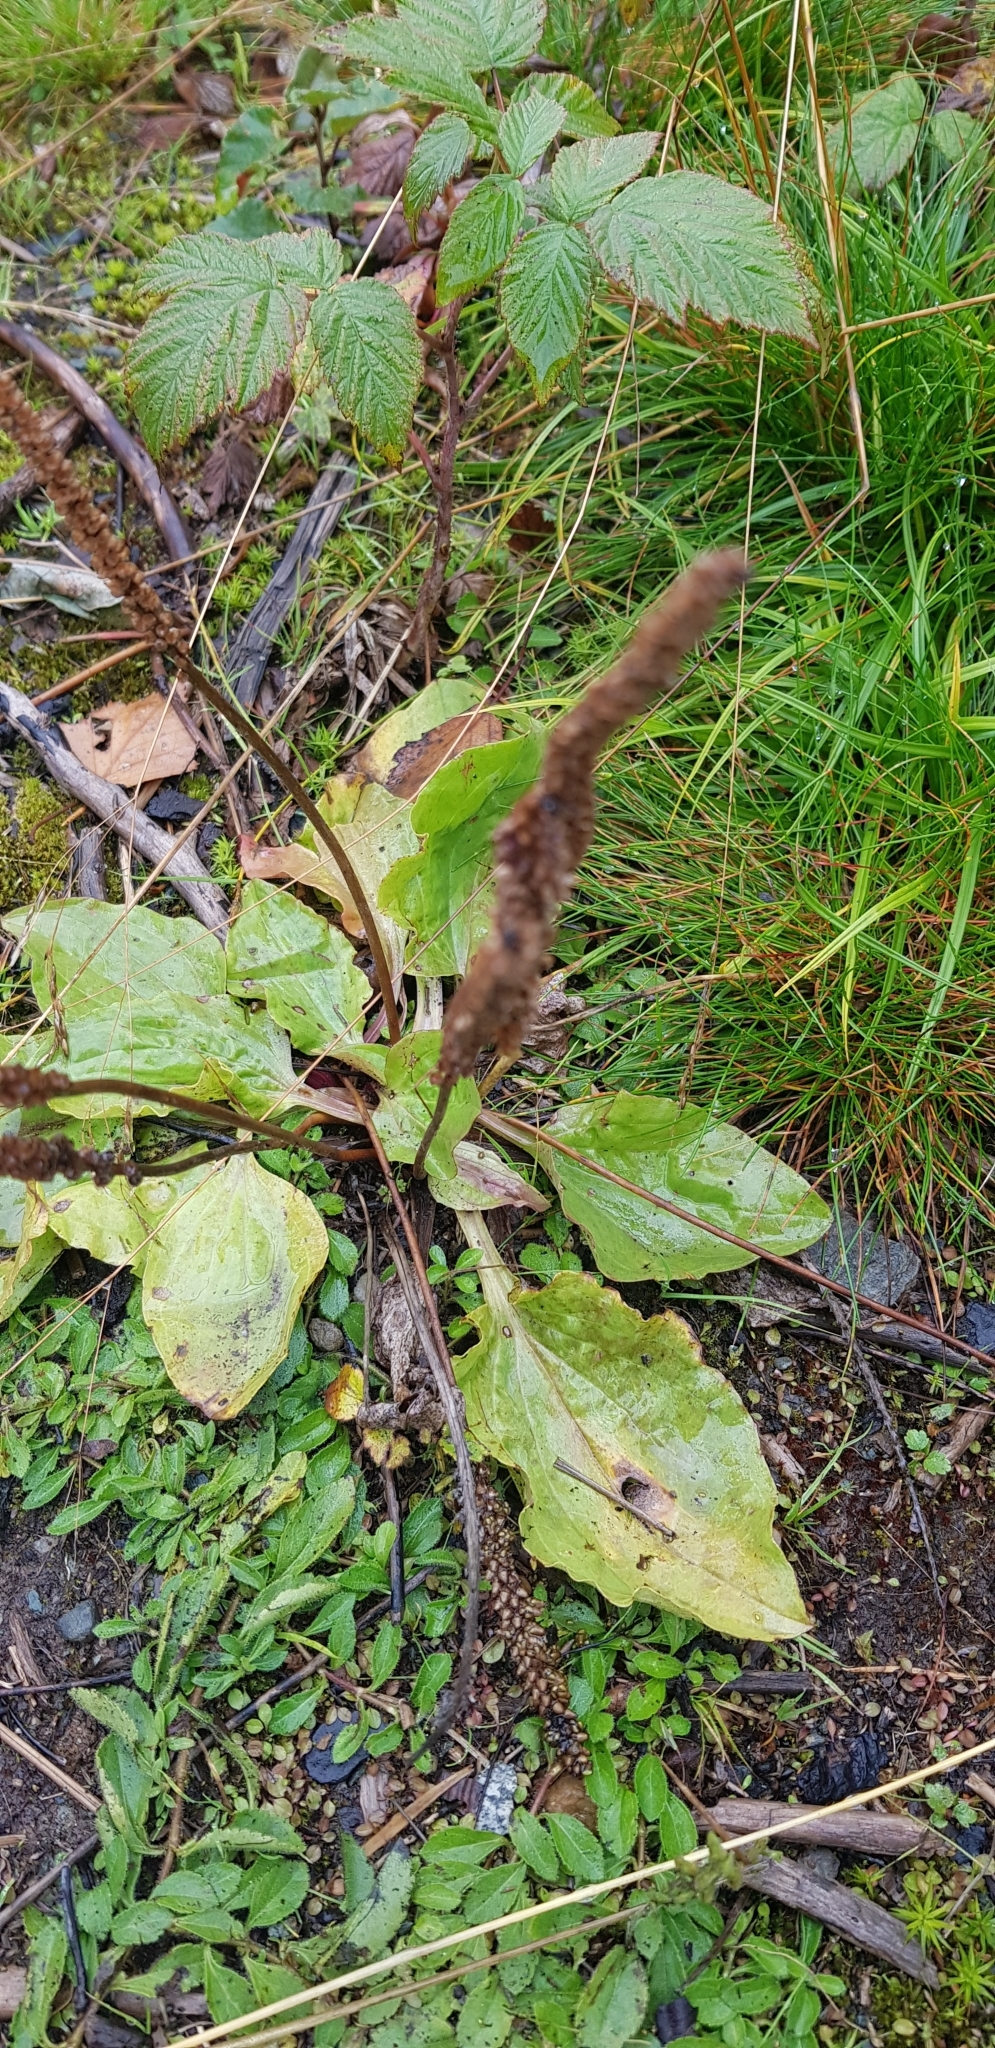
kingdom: Plantae
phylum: Tracheophyta
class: Magnoliopsida
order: Lamiales
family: Plantaginaceae
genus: Plantago
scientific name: Plantago major
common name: Common plantain
